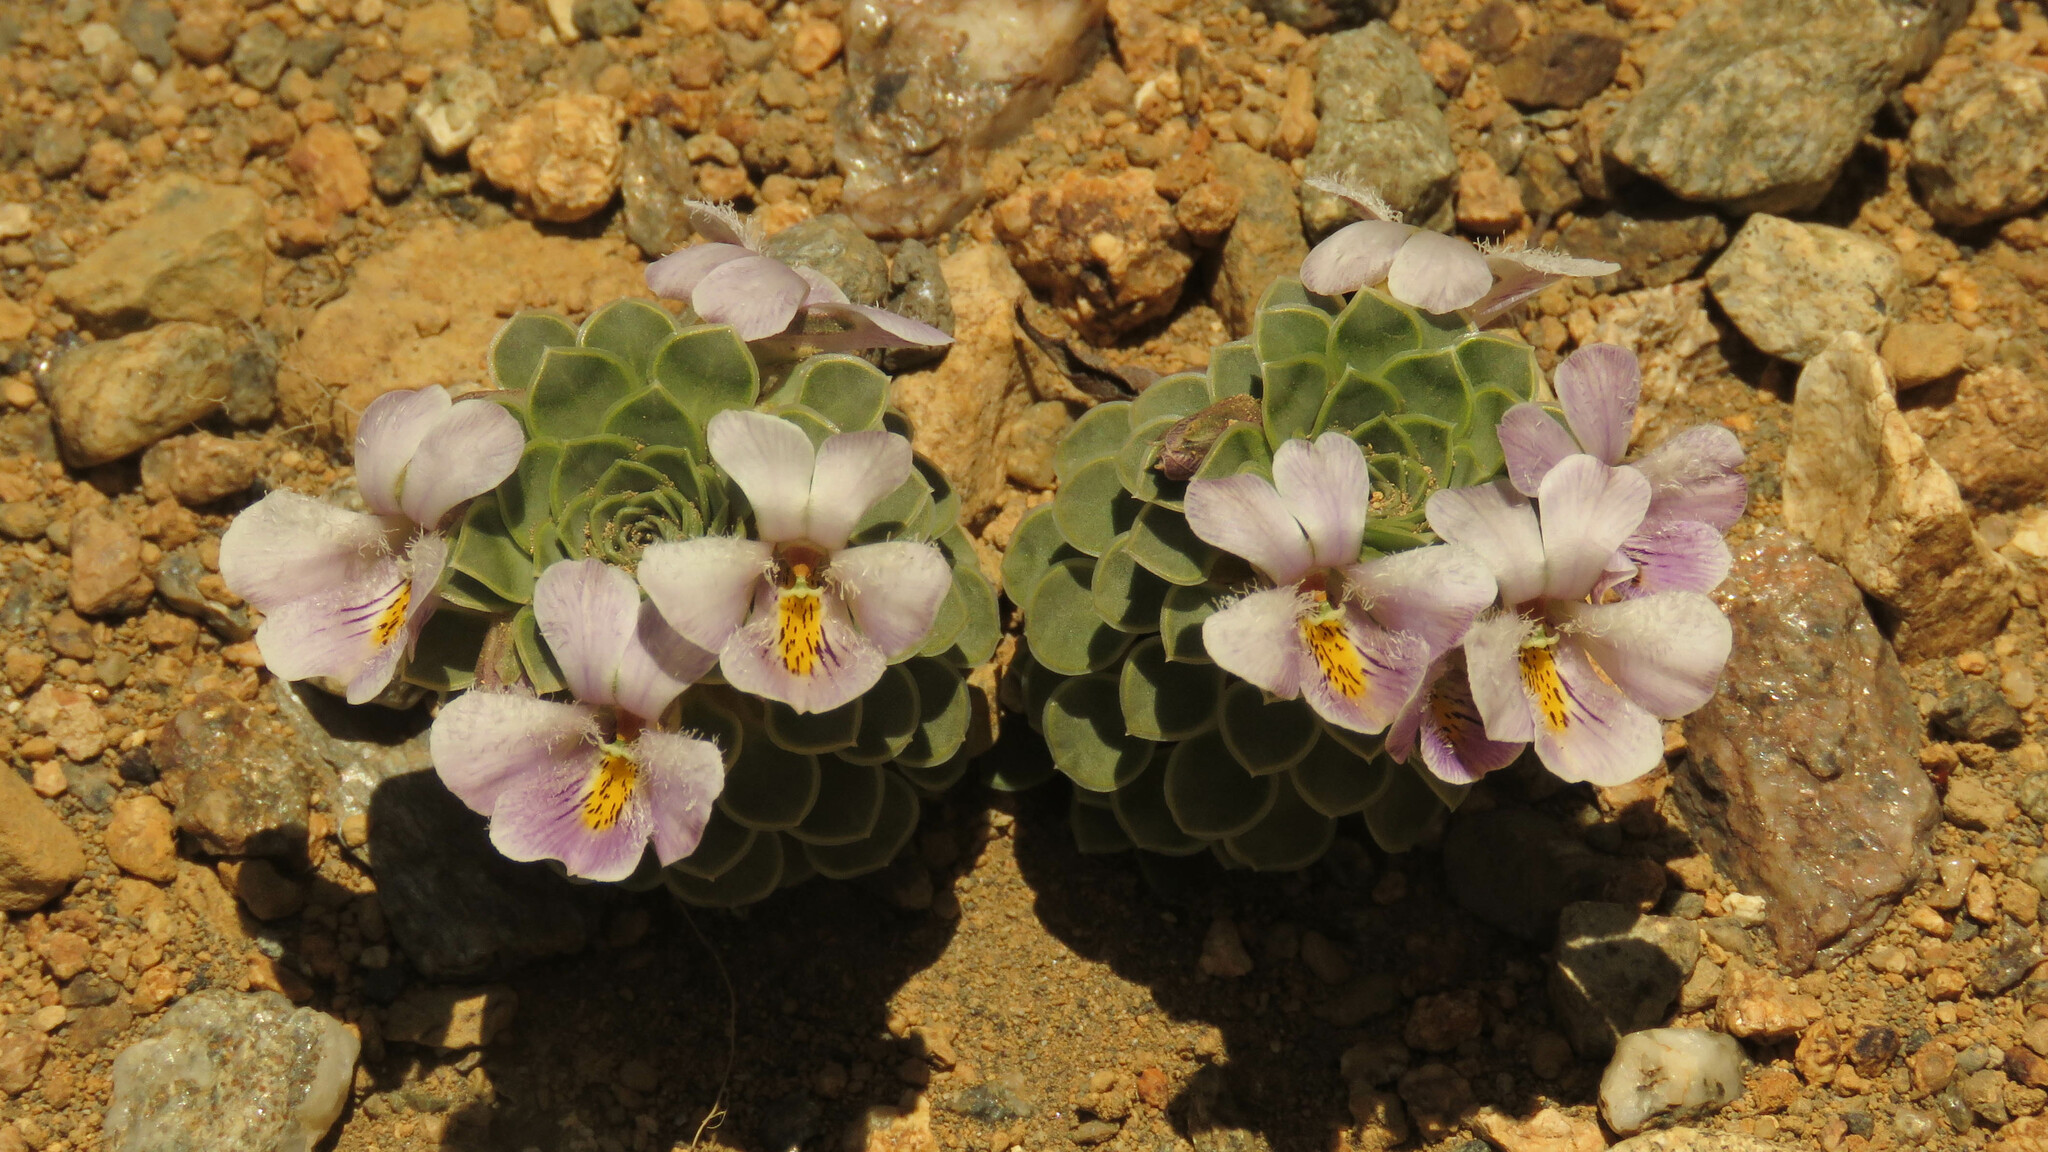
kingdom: Plantae
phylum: Tracheophyta
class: Magnoliopsida
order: Malpighiales
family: Violaceae
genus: Viola
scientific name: Viola petraea
